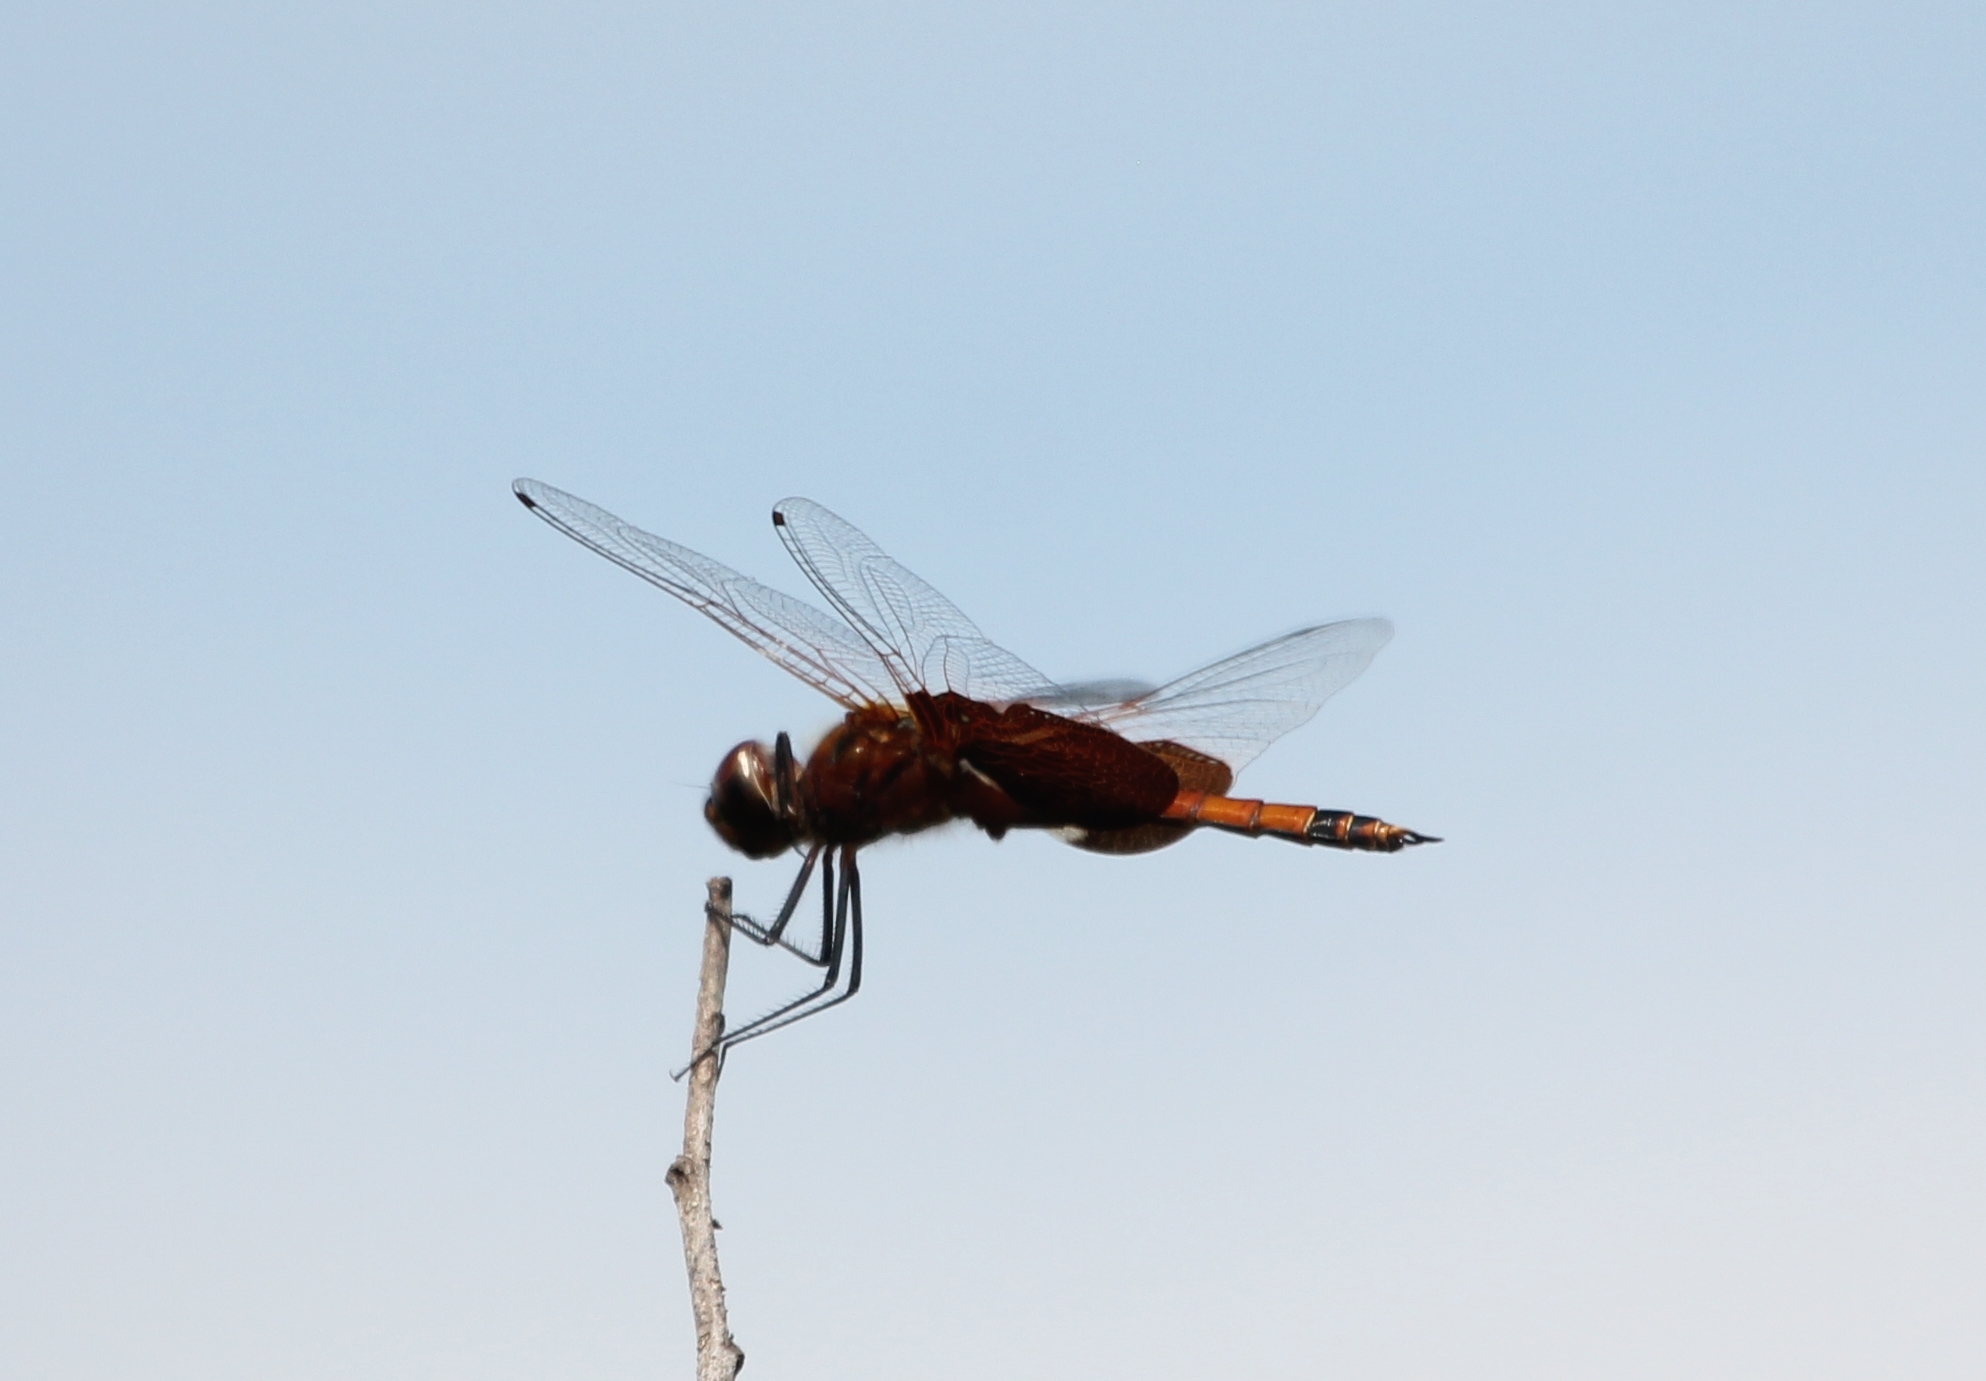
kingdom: Animalia
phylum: Arthropoda
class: Insecta
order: Odonata
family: Libellulidae
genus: Tramea
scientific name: Tramea carolina
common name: Carolina saddlebags
